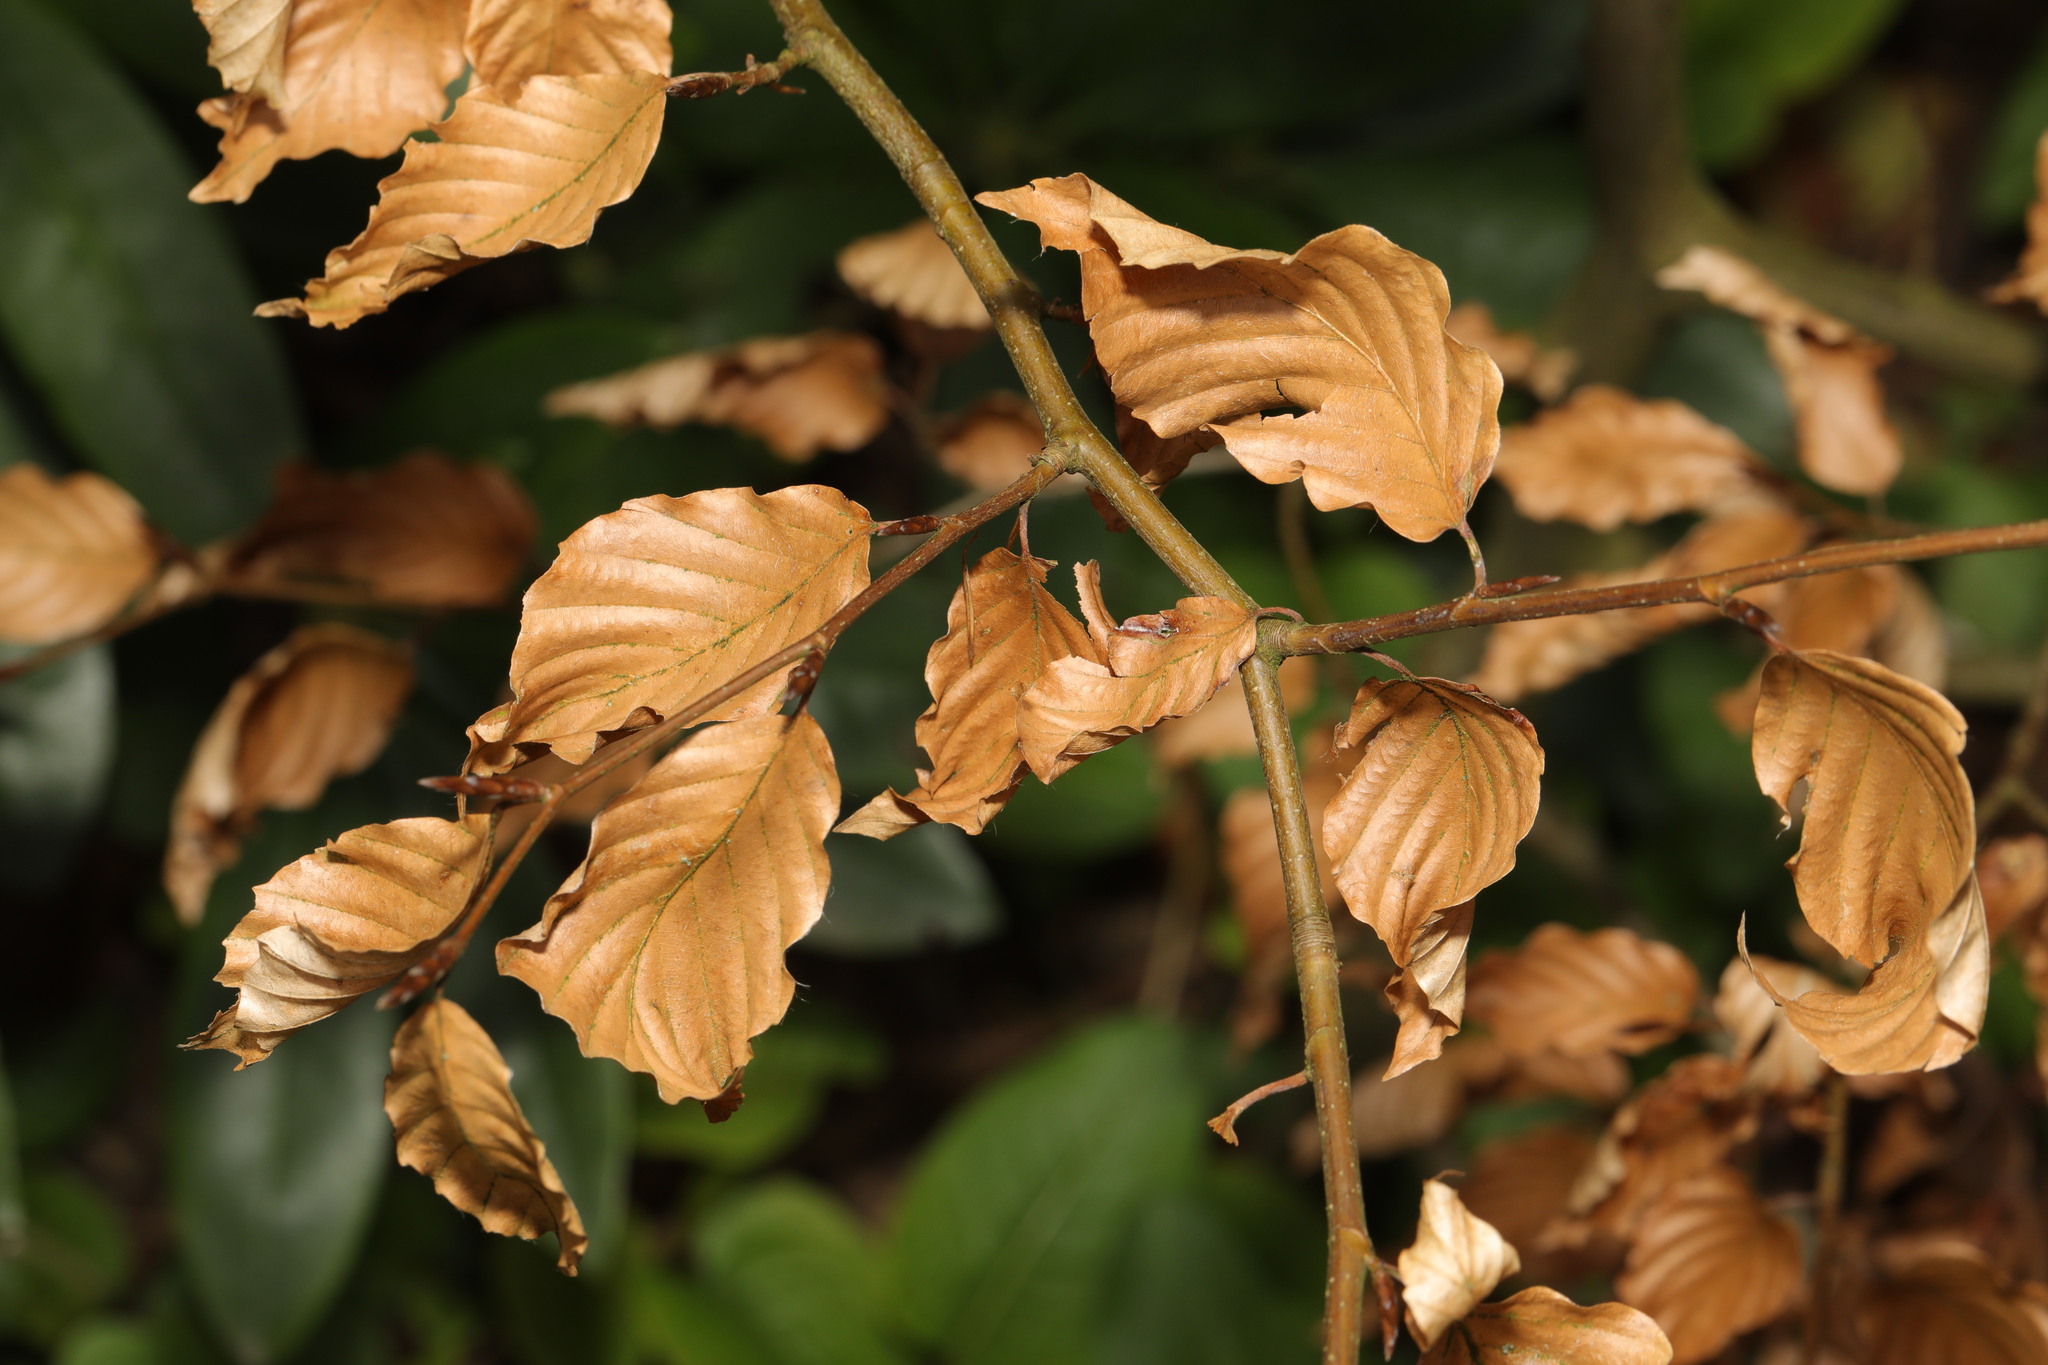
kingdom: Plantae
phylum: Tracheophyta
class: Magnoliopsida
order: Fagales
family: Fagaceae
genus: Fagus
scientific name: Fagus sylvatica
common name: Beech
